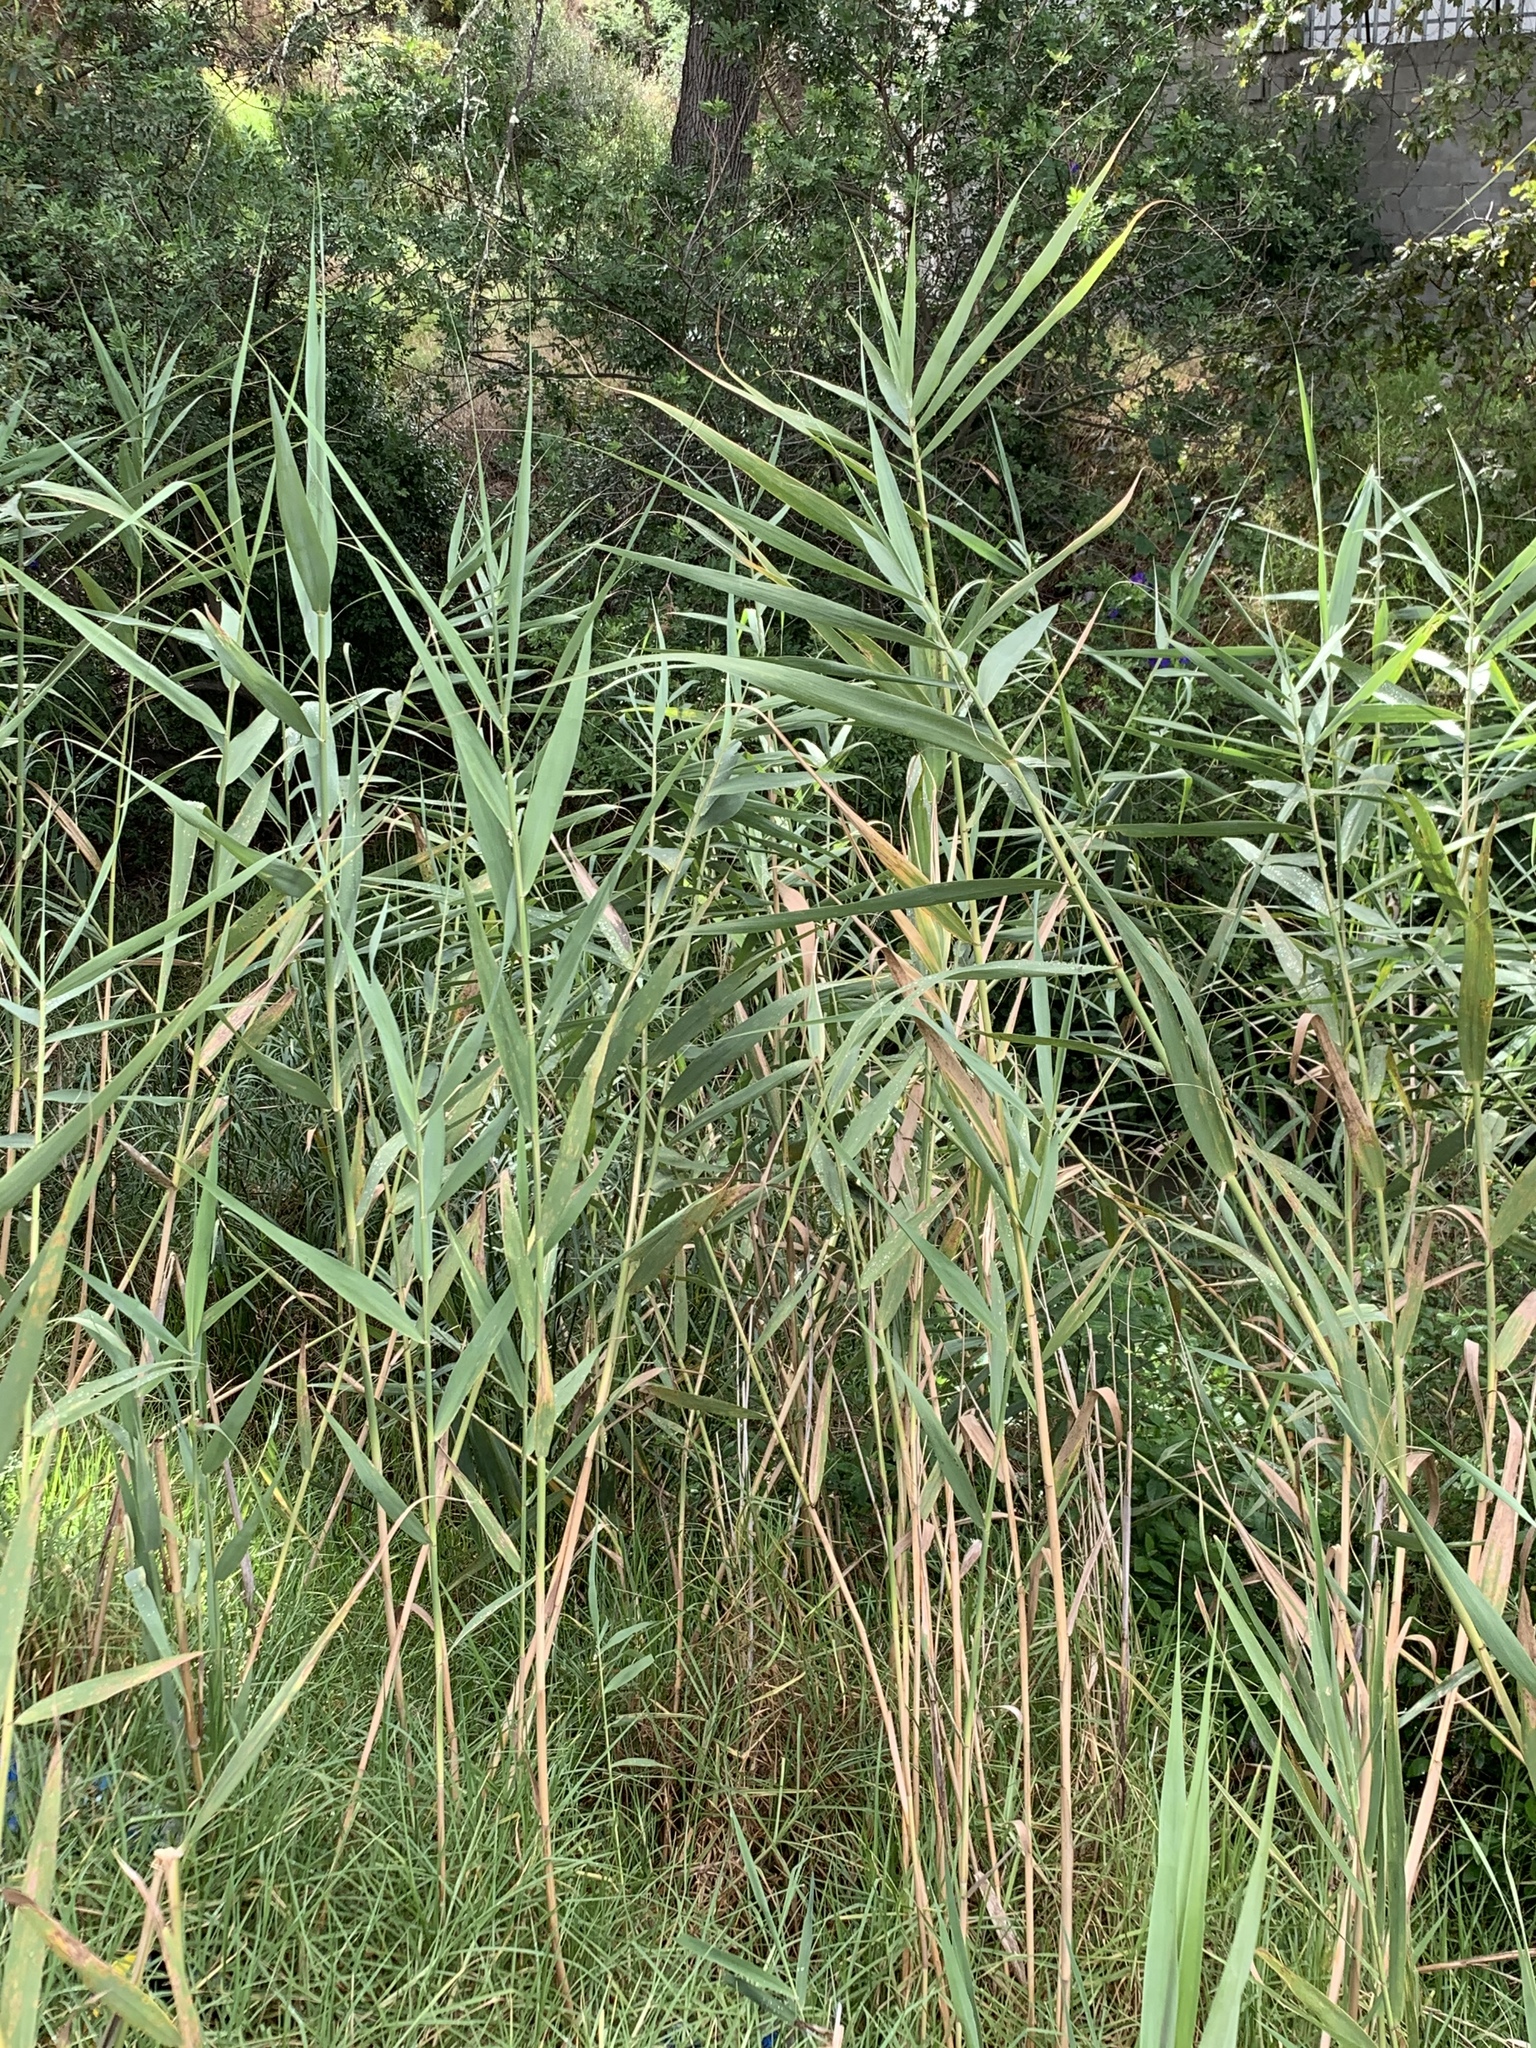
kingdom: Plantae
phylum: Tracheophyta
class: Liliopsida
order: Poales
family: Poaceae
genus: Phragmites
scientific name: Phragmites australis
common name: Common reed
